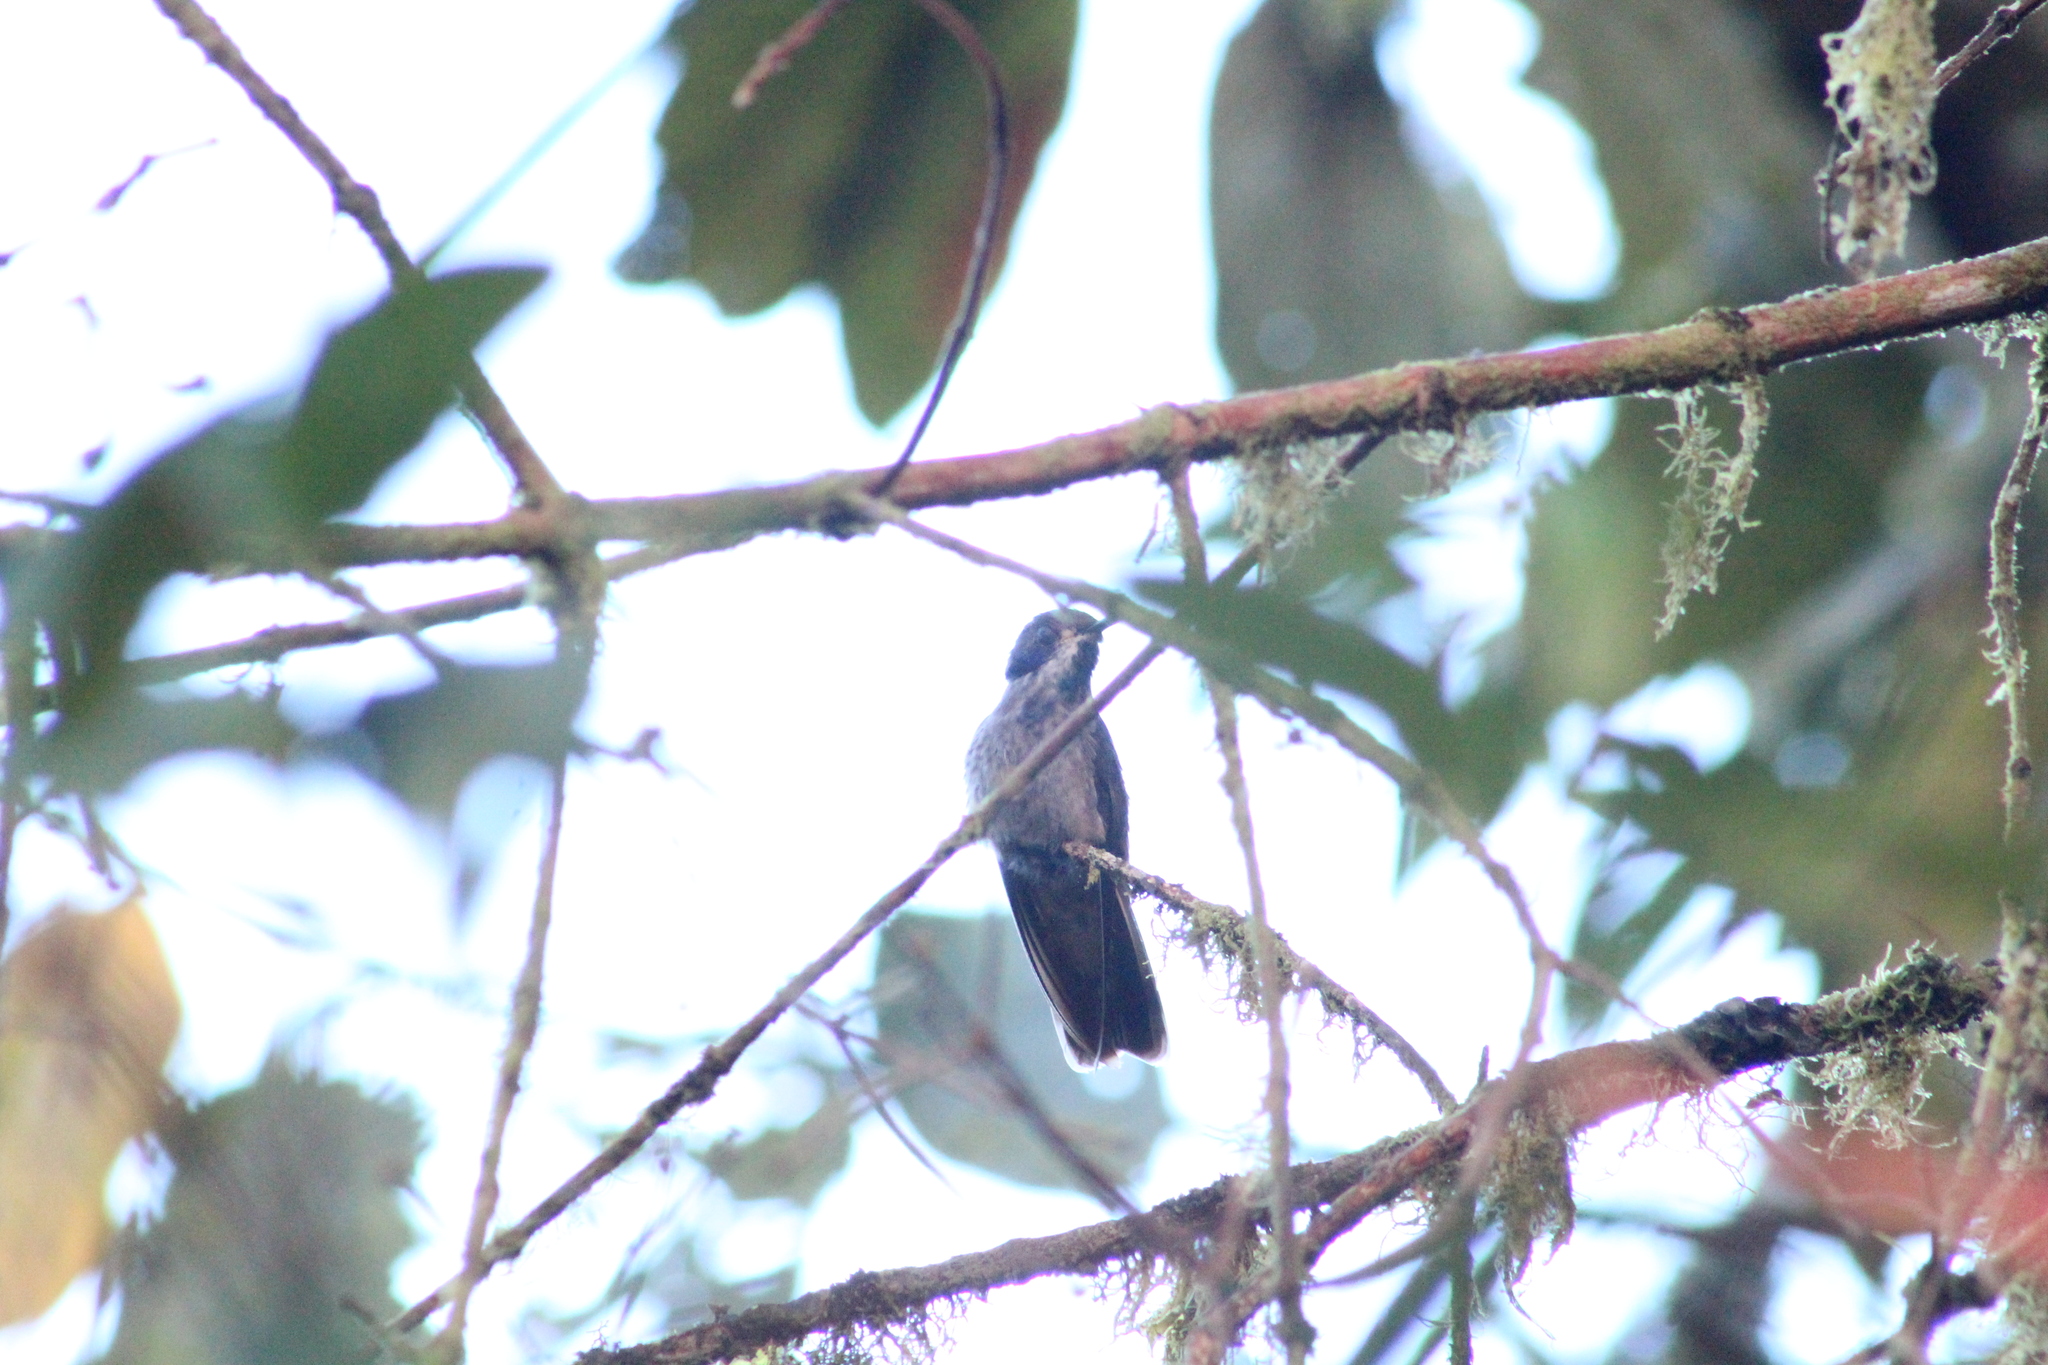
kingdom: Animalia
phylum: Chordata
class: Aves
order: Apodiformes
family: Trochilidae
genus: Colibri
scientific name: Colibri delphinae
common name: Brown violetear
